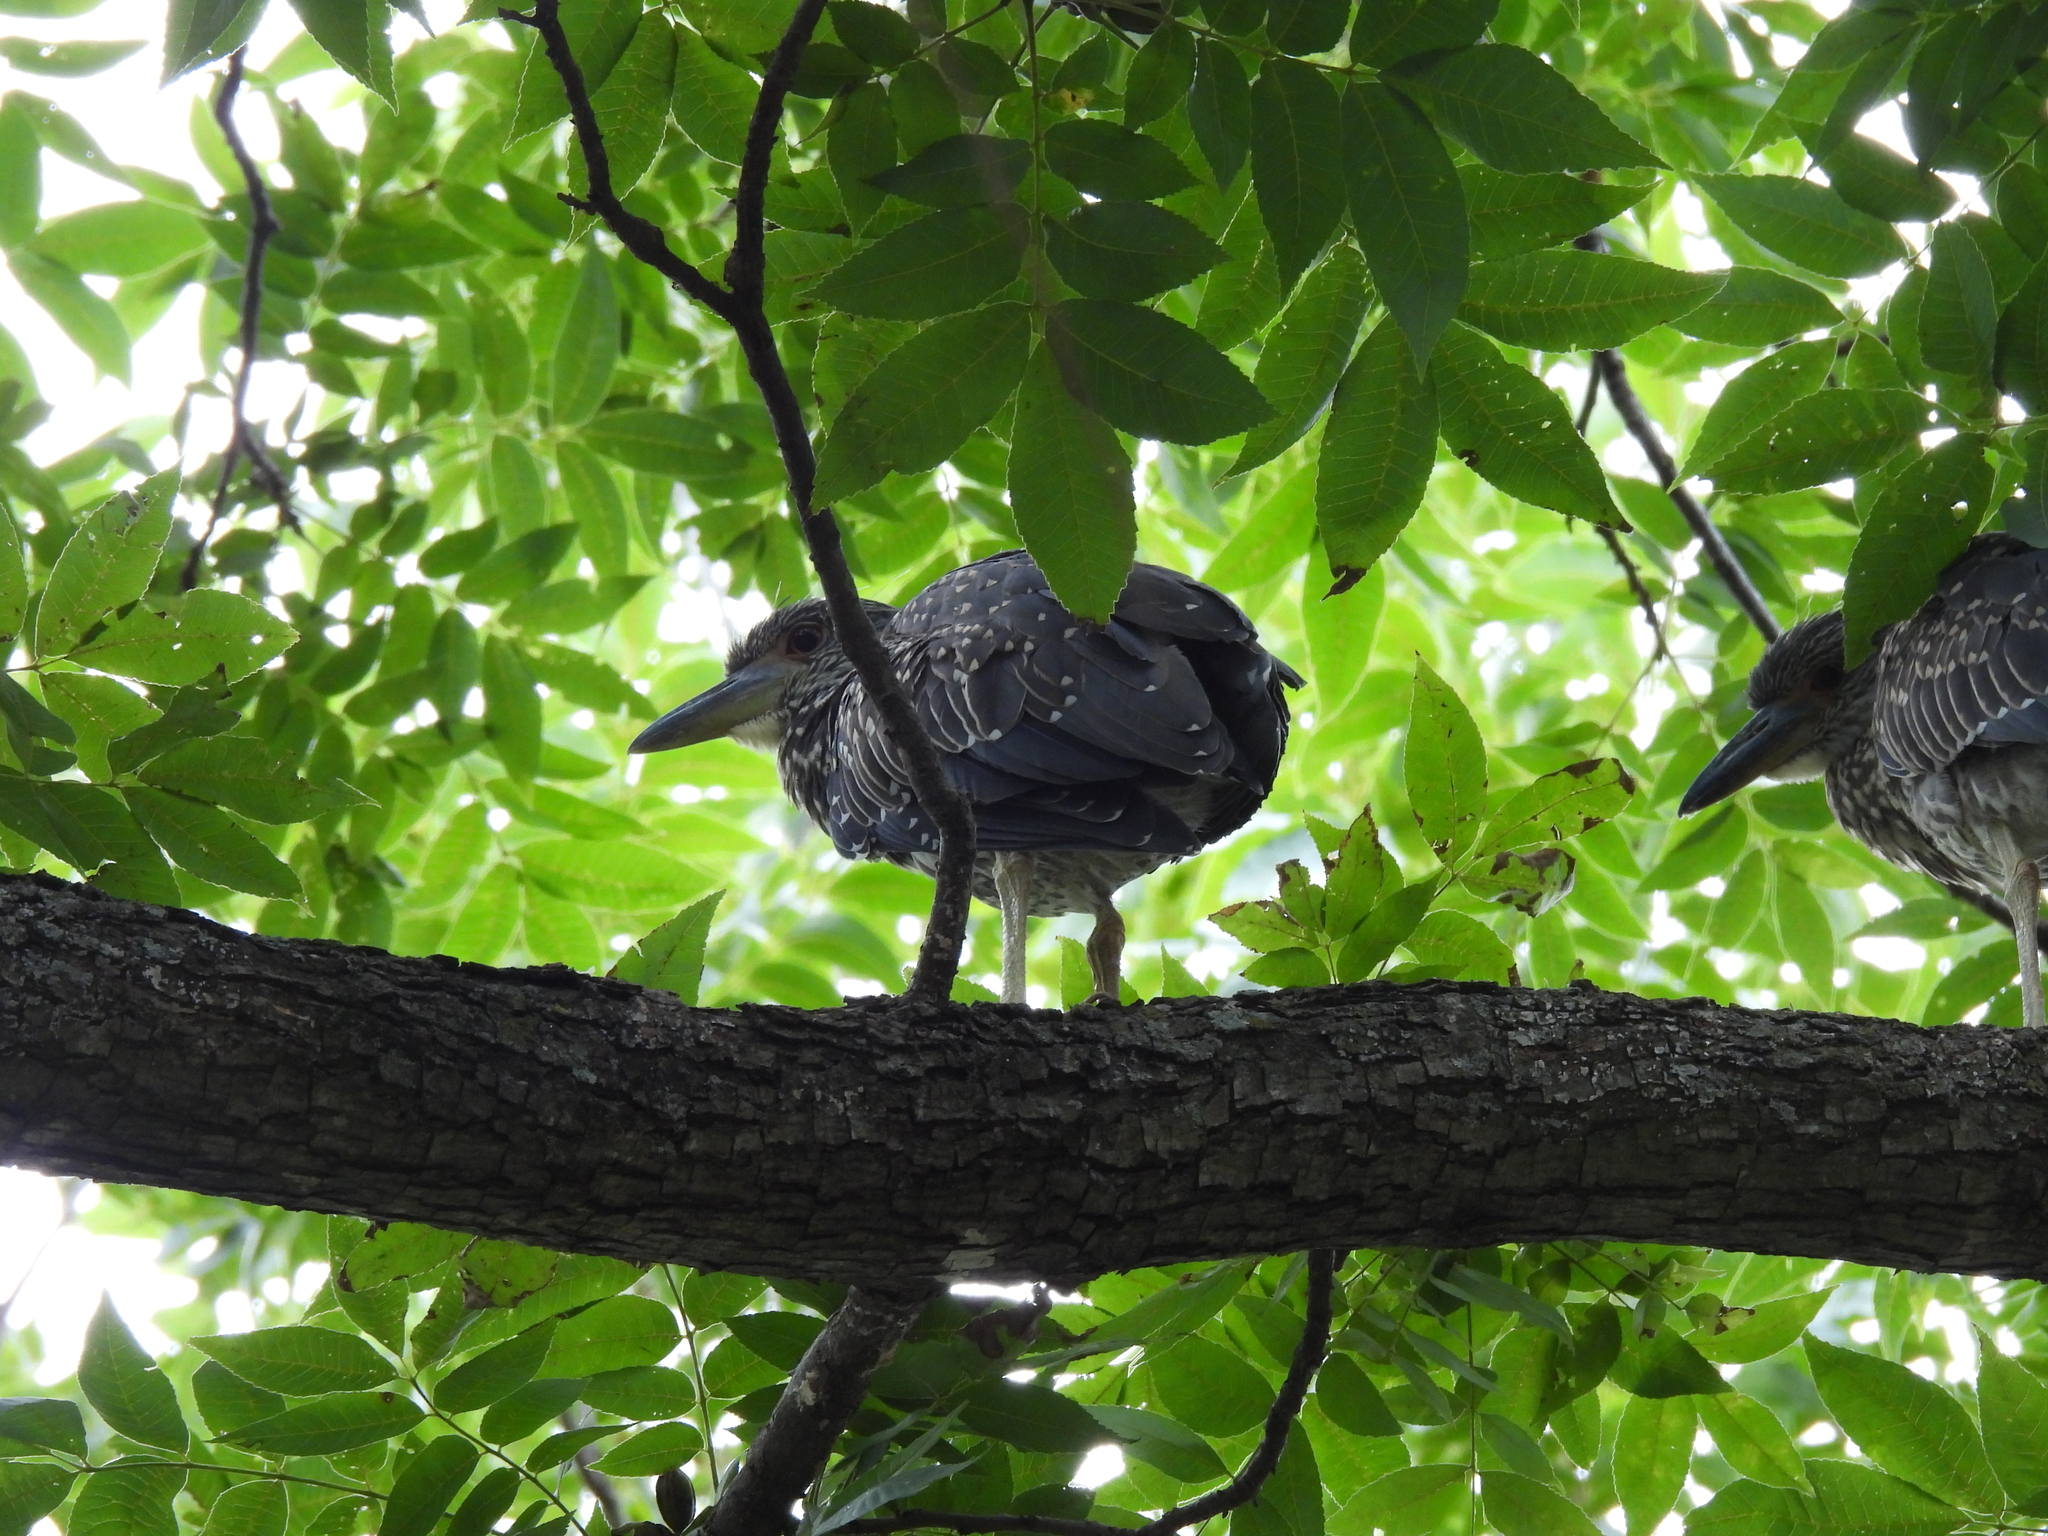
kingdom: Animalia
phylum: Chordata
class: Aves
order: Pelecaniformes
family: Ardeidae
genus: Nyctanassa
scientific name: Nyctanassa violacea
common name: Yellow-crowned night heron
